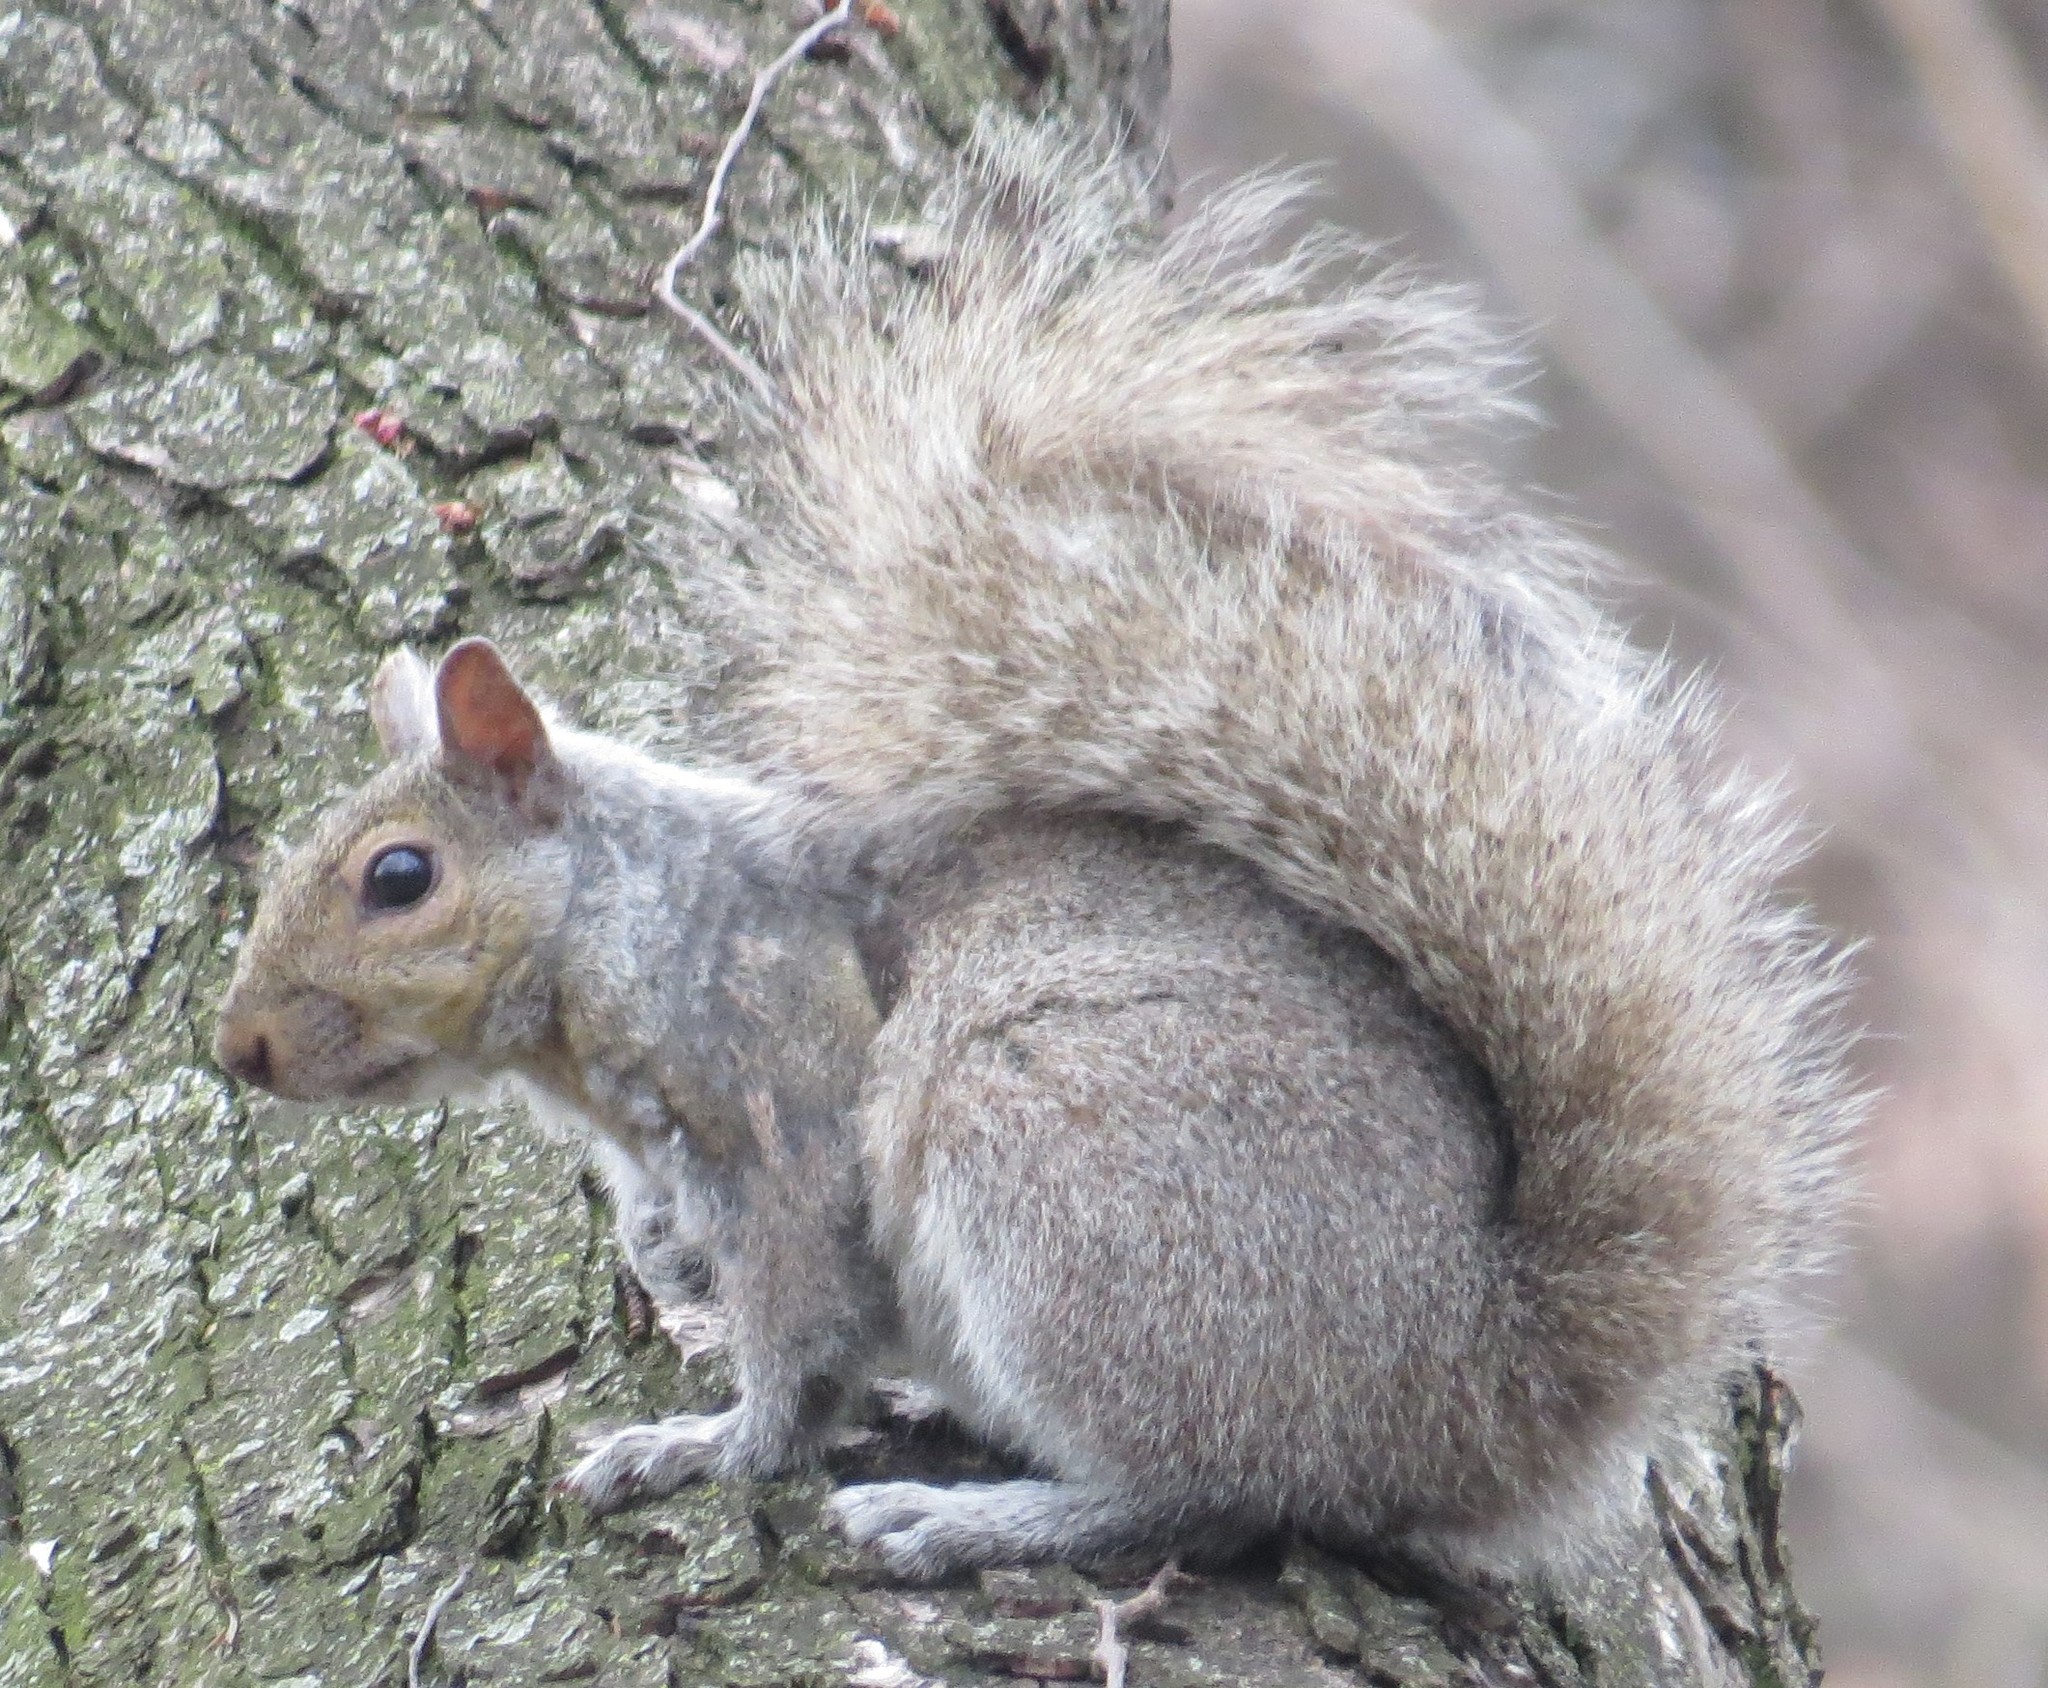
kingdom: Animalia
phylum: Chordata
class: Mammalia
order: Rodentia
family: Sciuridae
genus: Sciurus
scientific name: Sciurus carolinensis
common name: Eastern gray squirrel
